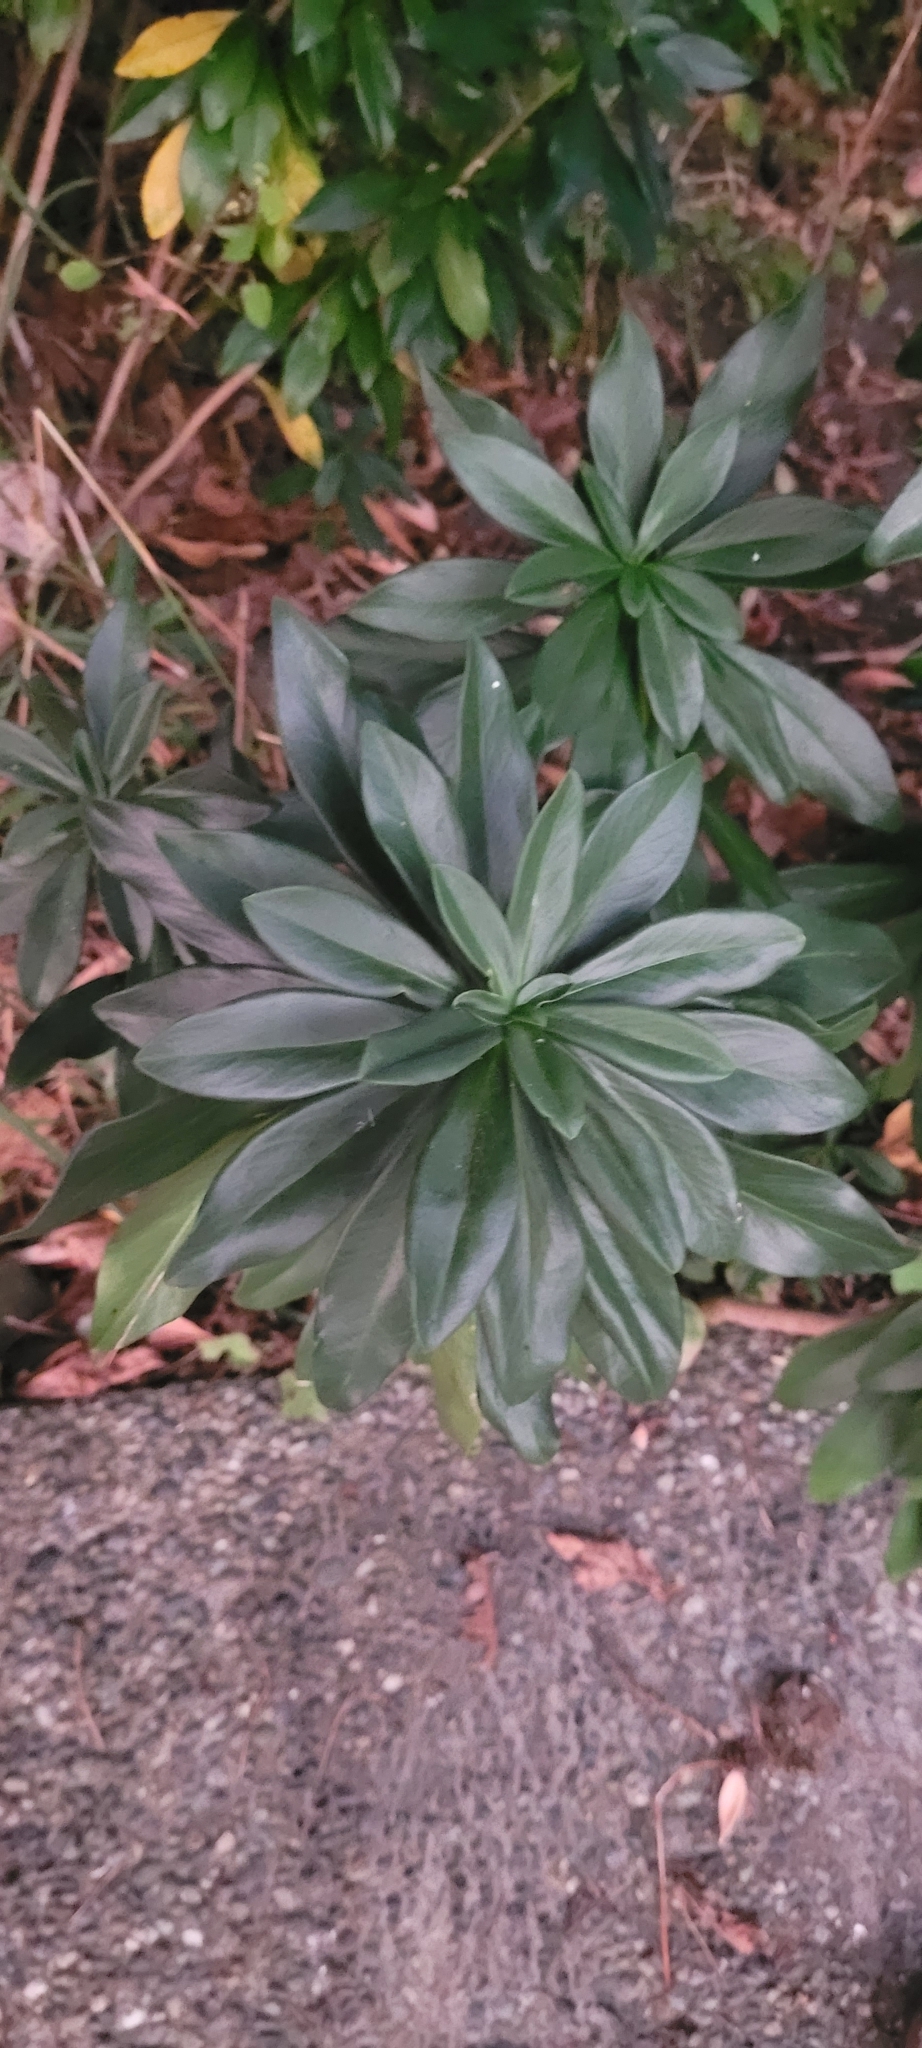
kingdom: Plantae
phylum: Tracheophyta
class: Magnoliopsida
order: Malvales
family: Thymelaeaceae
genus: Daphne
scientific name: Daphne laureola
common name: Spurge-laurel
